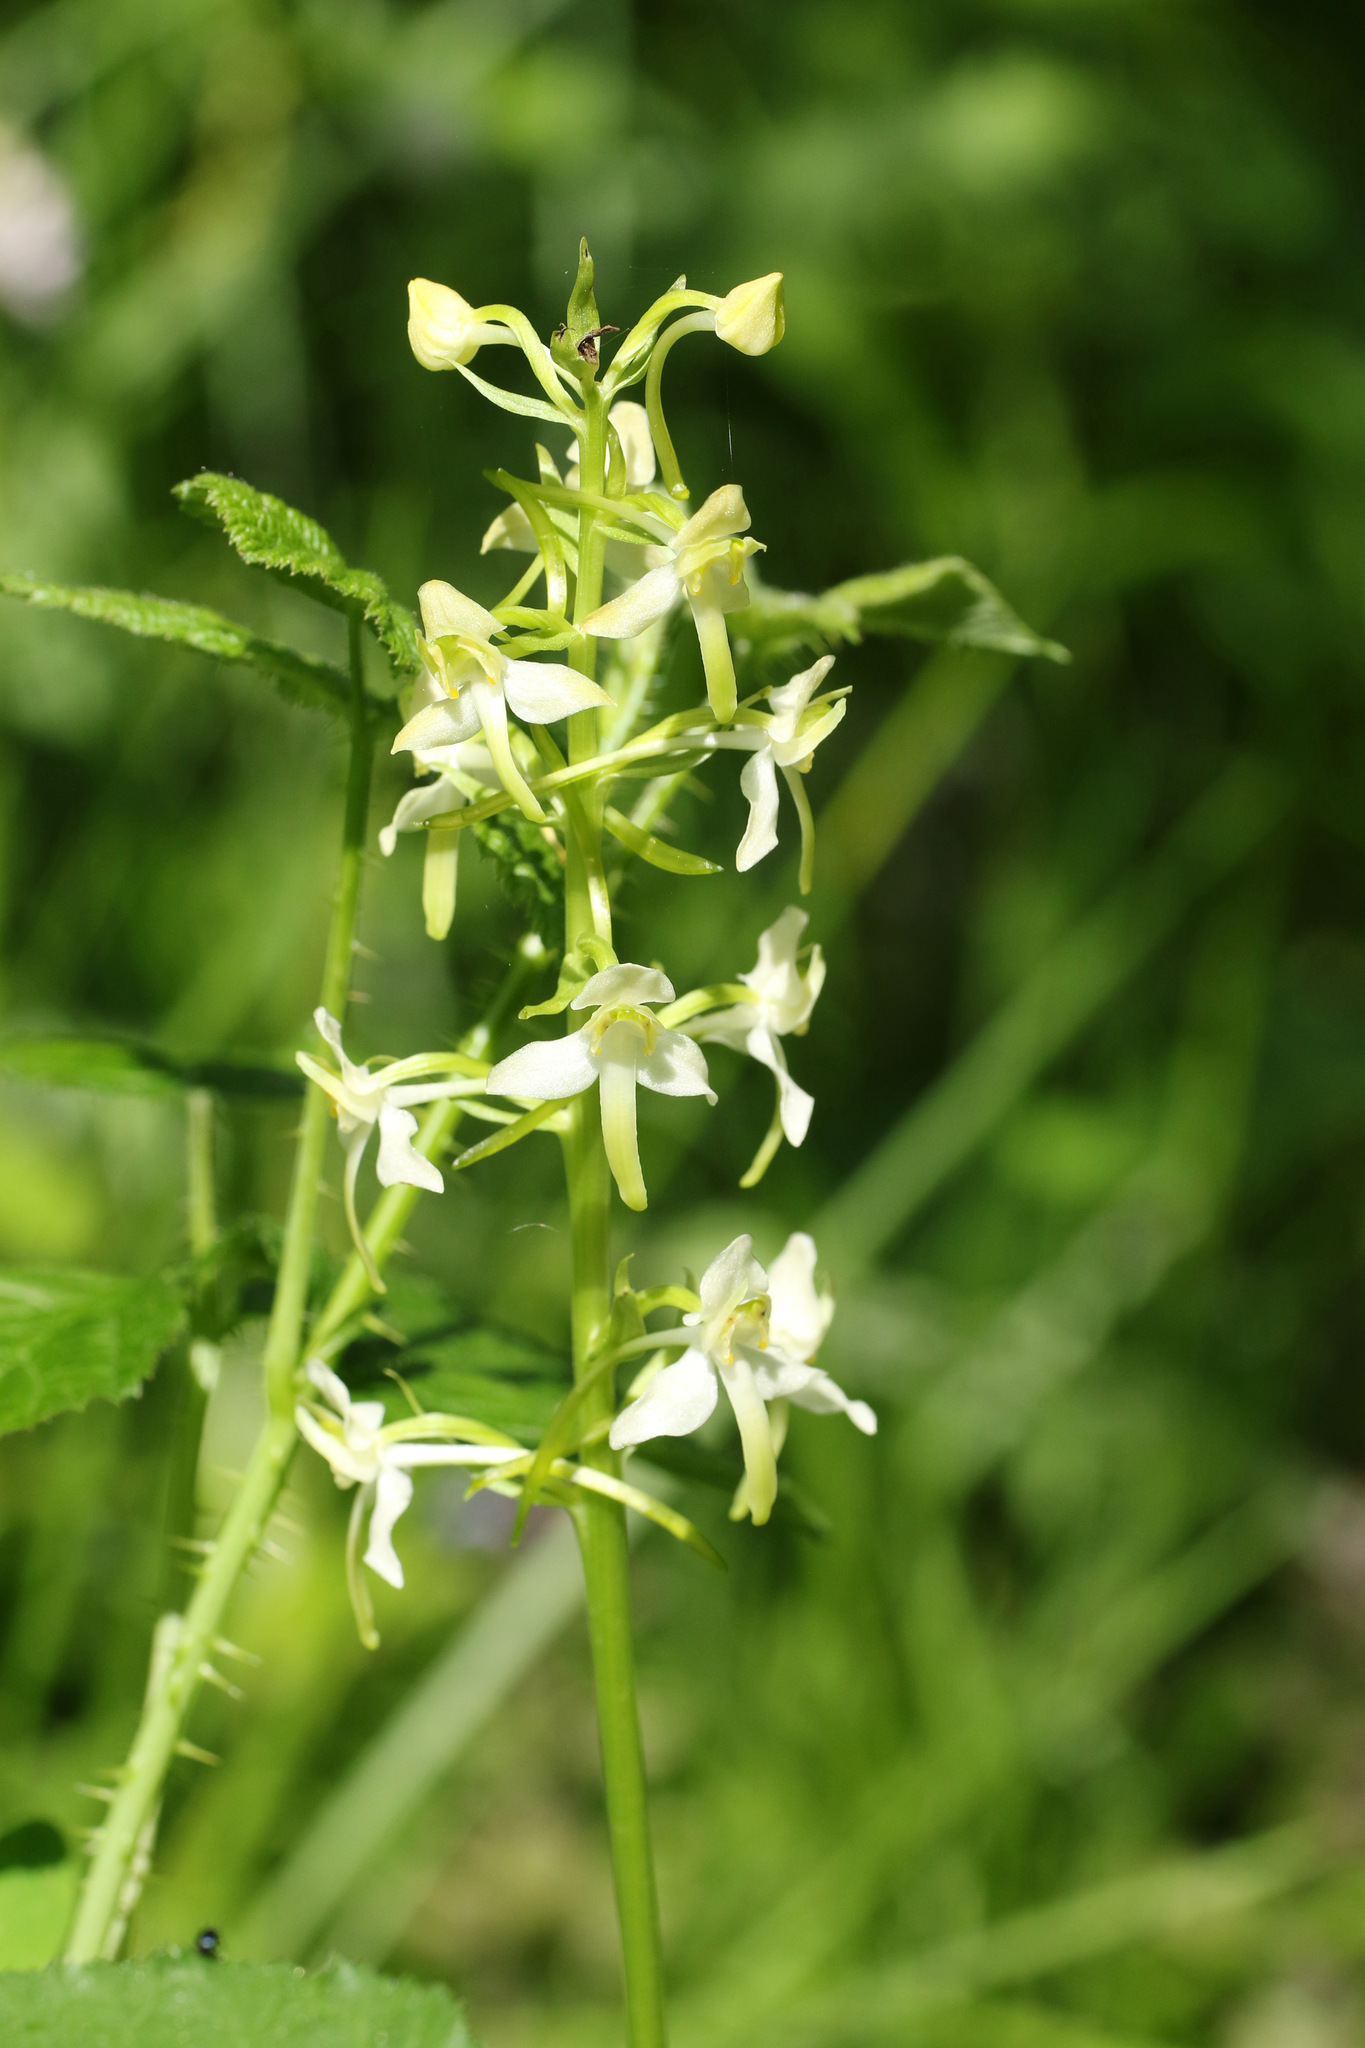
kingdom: Plantae
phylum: Tracheophyta
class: Liliopsida
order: Asparagales
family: Orchidaceae
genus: Platanthera
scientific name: Platanthera chlorantha
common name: Greater butterfly-orchid
